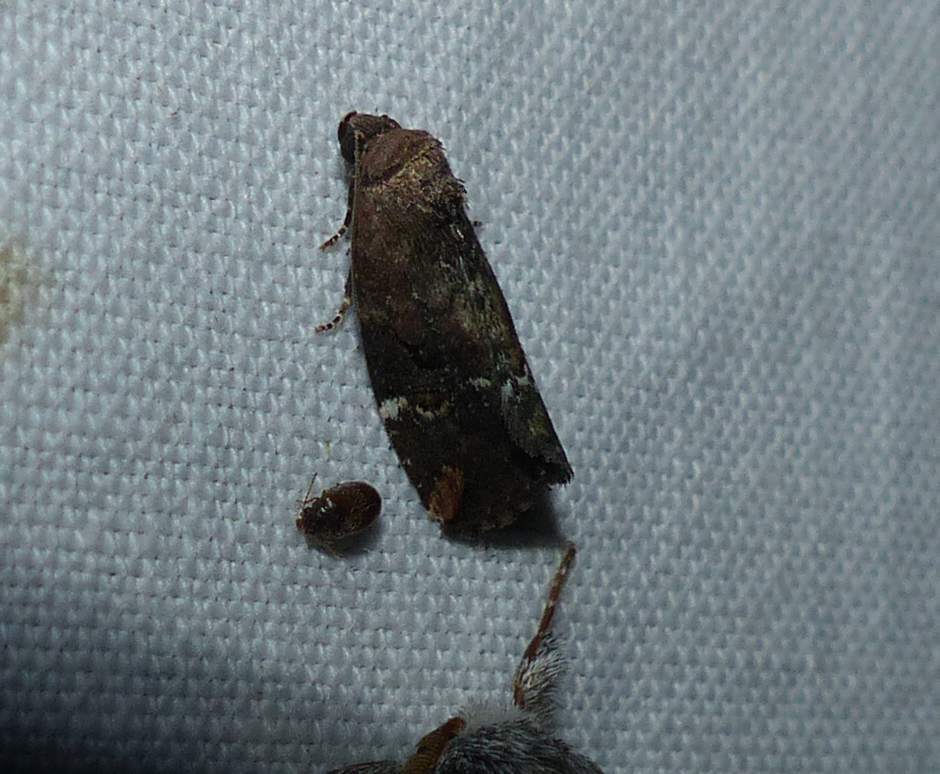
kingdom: Animalia
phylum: Arthropoda
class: Insecta
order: Lepidoptera
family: Noctuidae
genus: Elaphria
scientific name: Elaphria versicolor
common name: Fir harlequin
